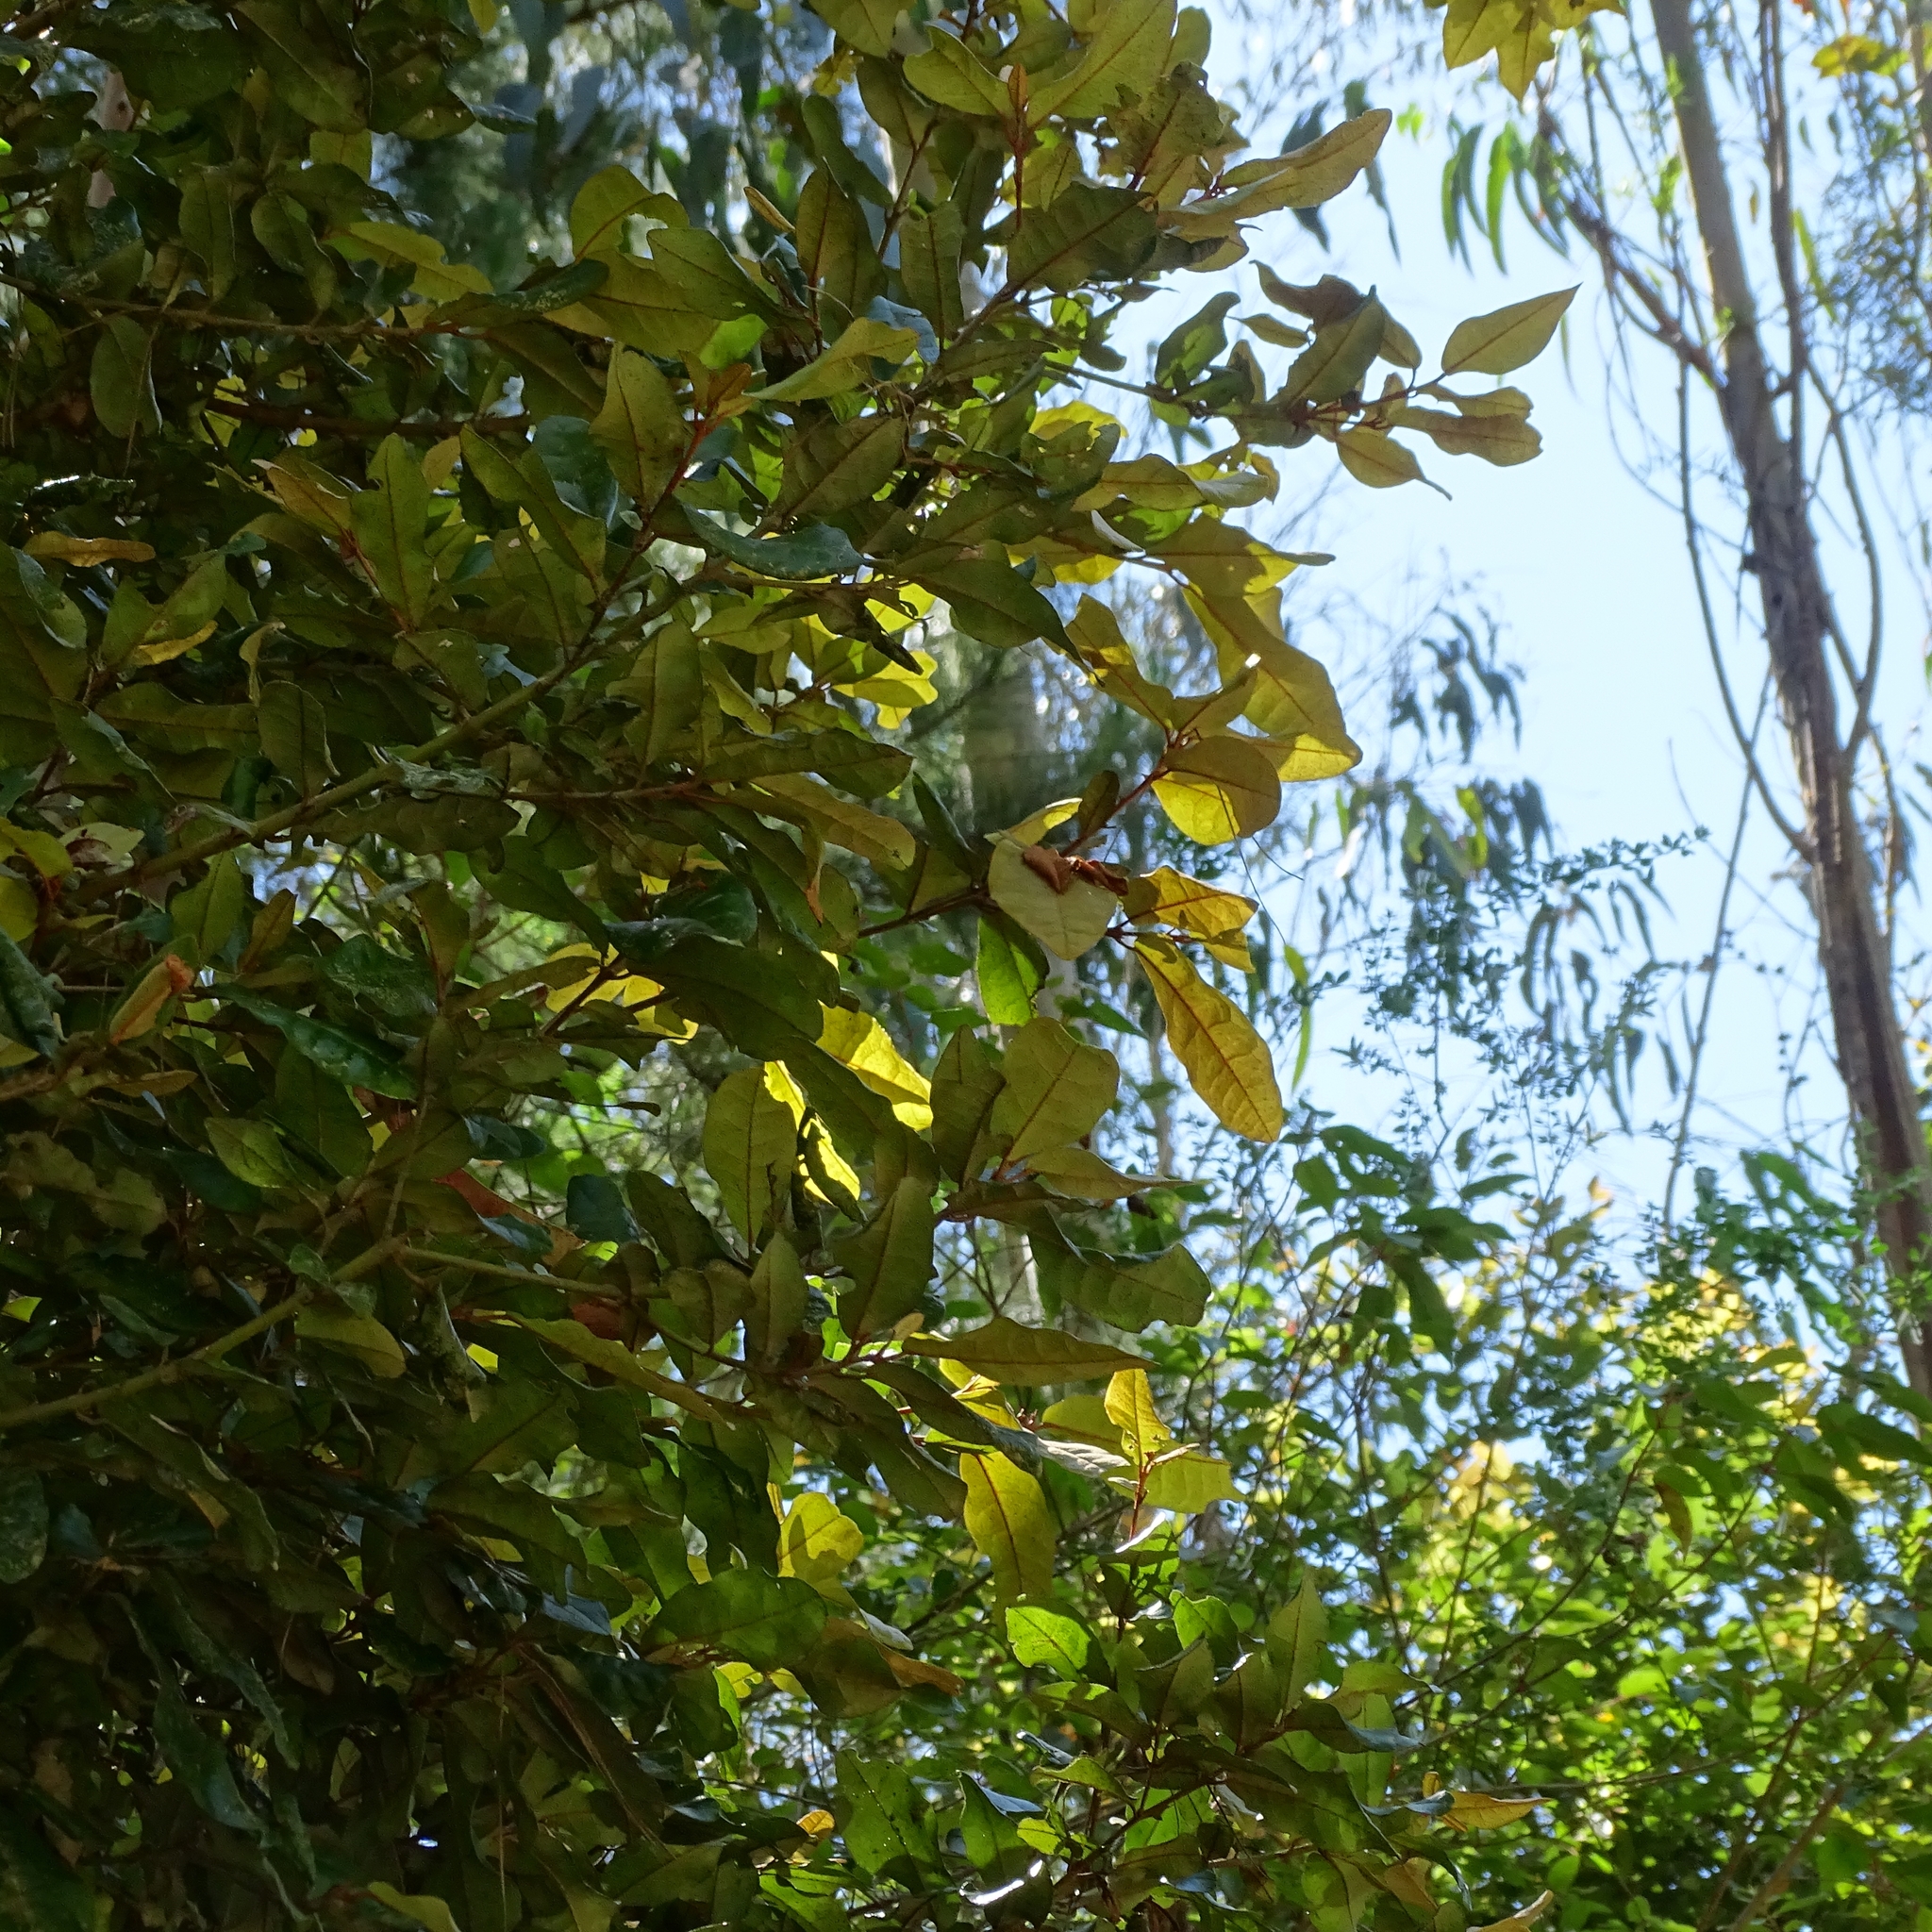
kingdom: Plantae
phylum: Tracheophyta
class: Magnoliopsida
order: Berberidopsidales
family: Aextoxicaceae
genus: Aextoxicon
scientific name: Aextoxicon punctatum
